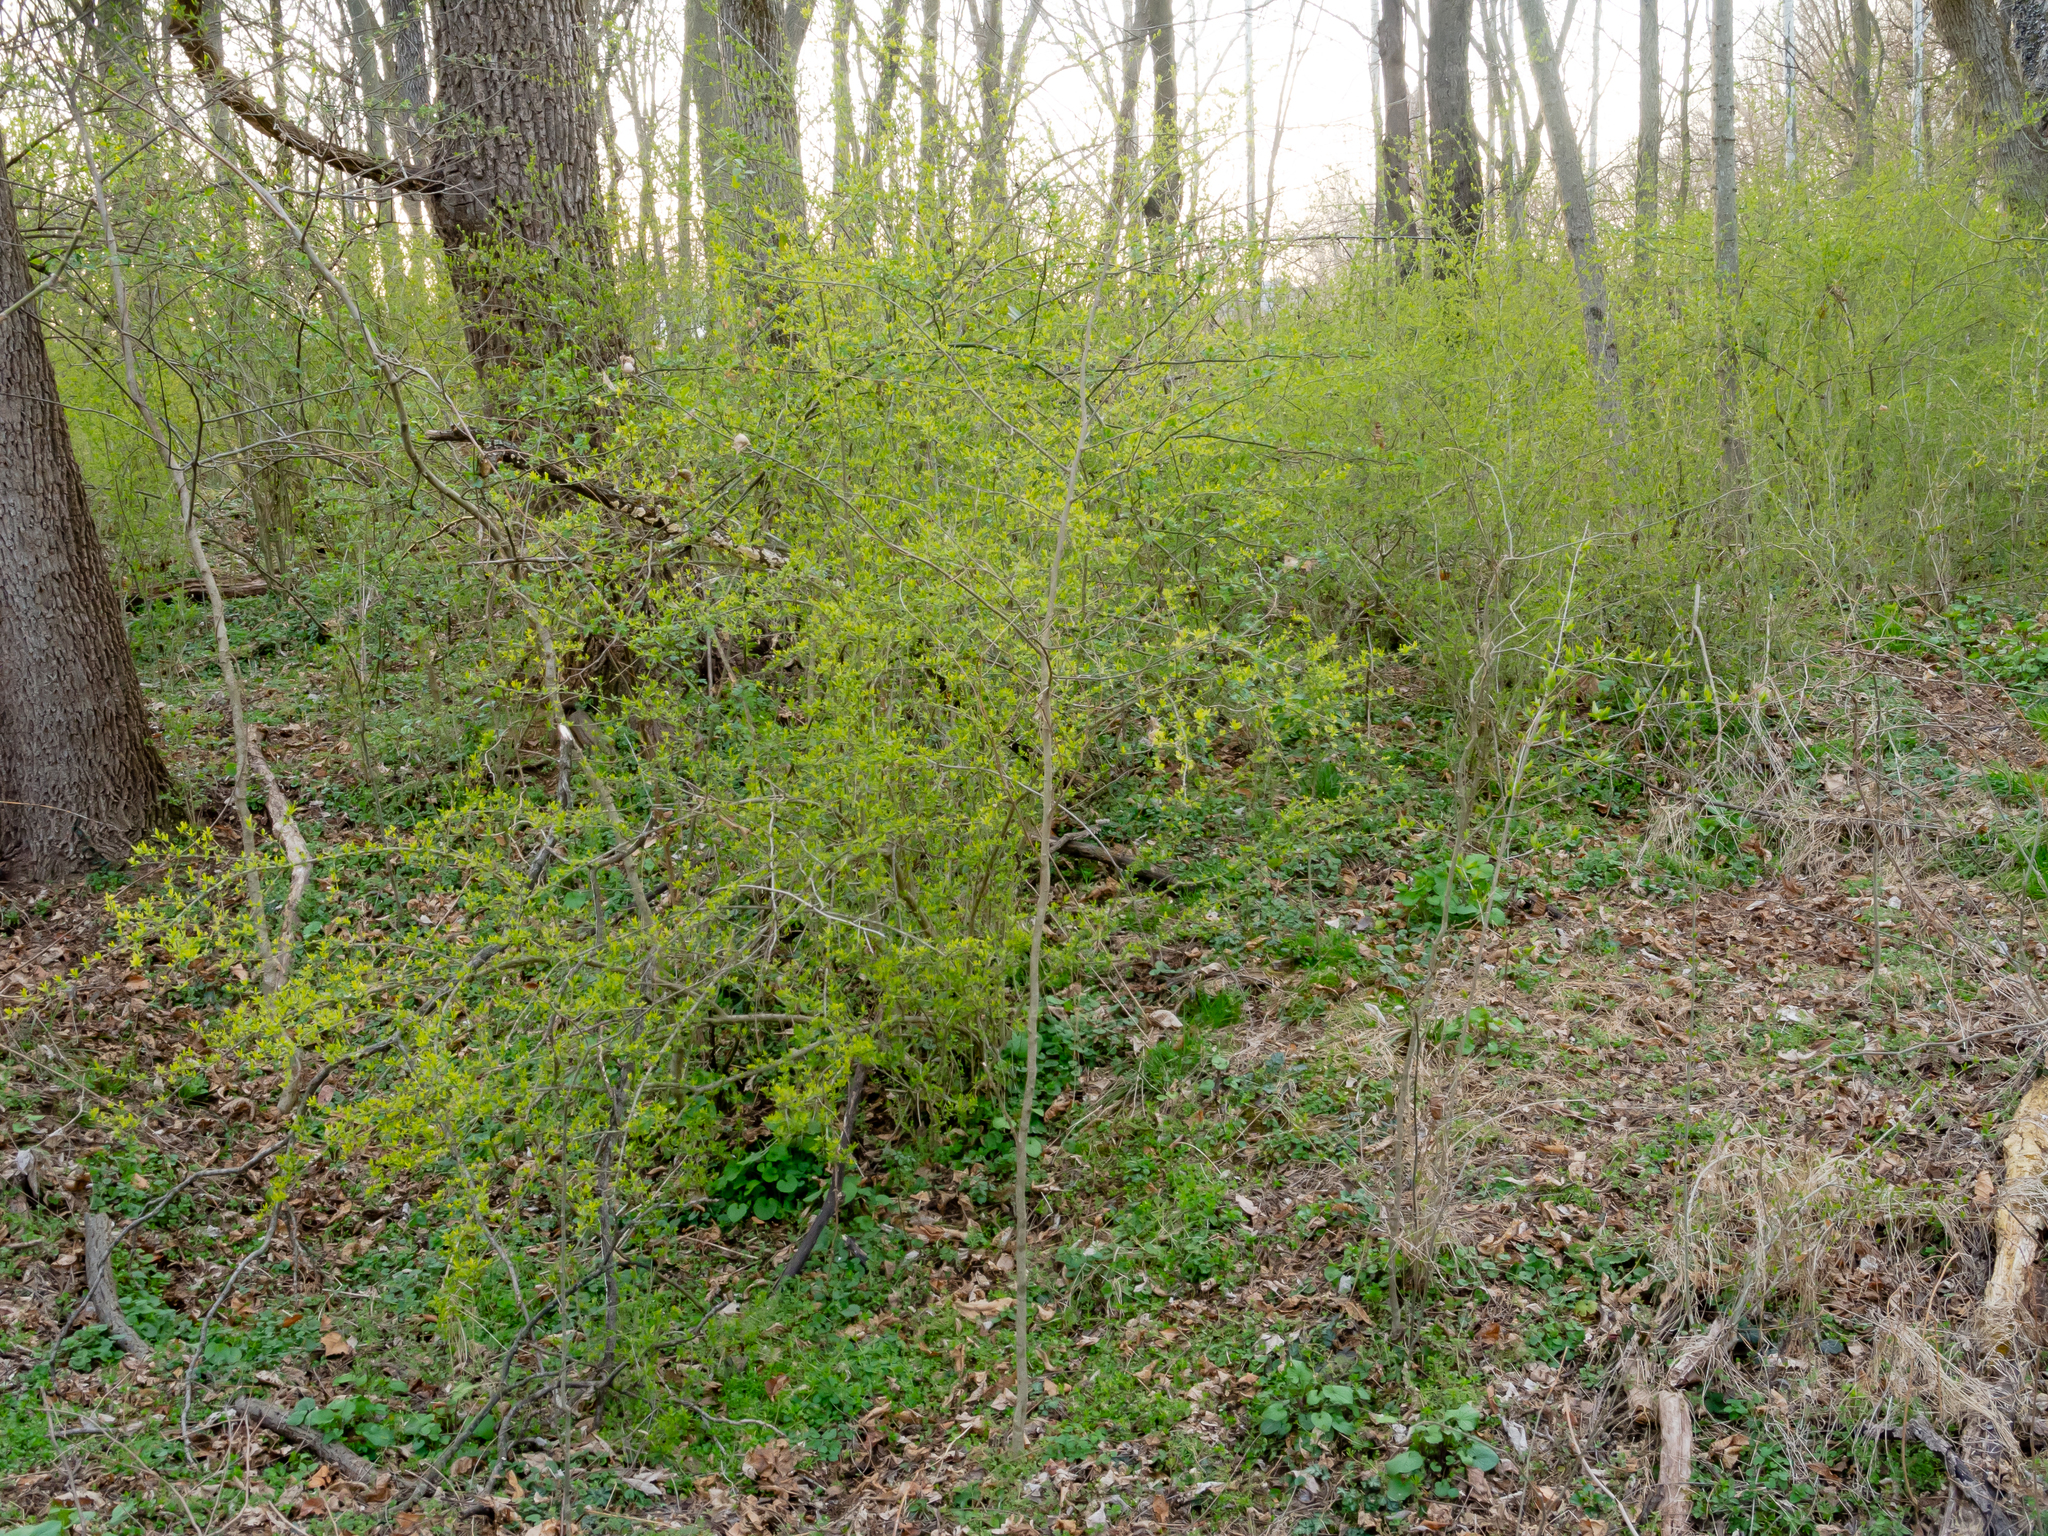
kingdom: Plantae
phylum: Tracheophyta
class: Magnoliopsida
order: Lamiales
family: Oleaceae
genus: Ligustrum
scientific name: Ligustrum obtusifolium
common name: Border privet
